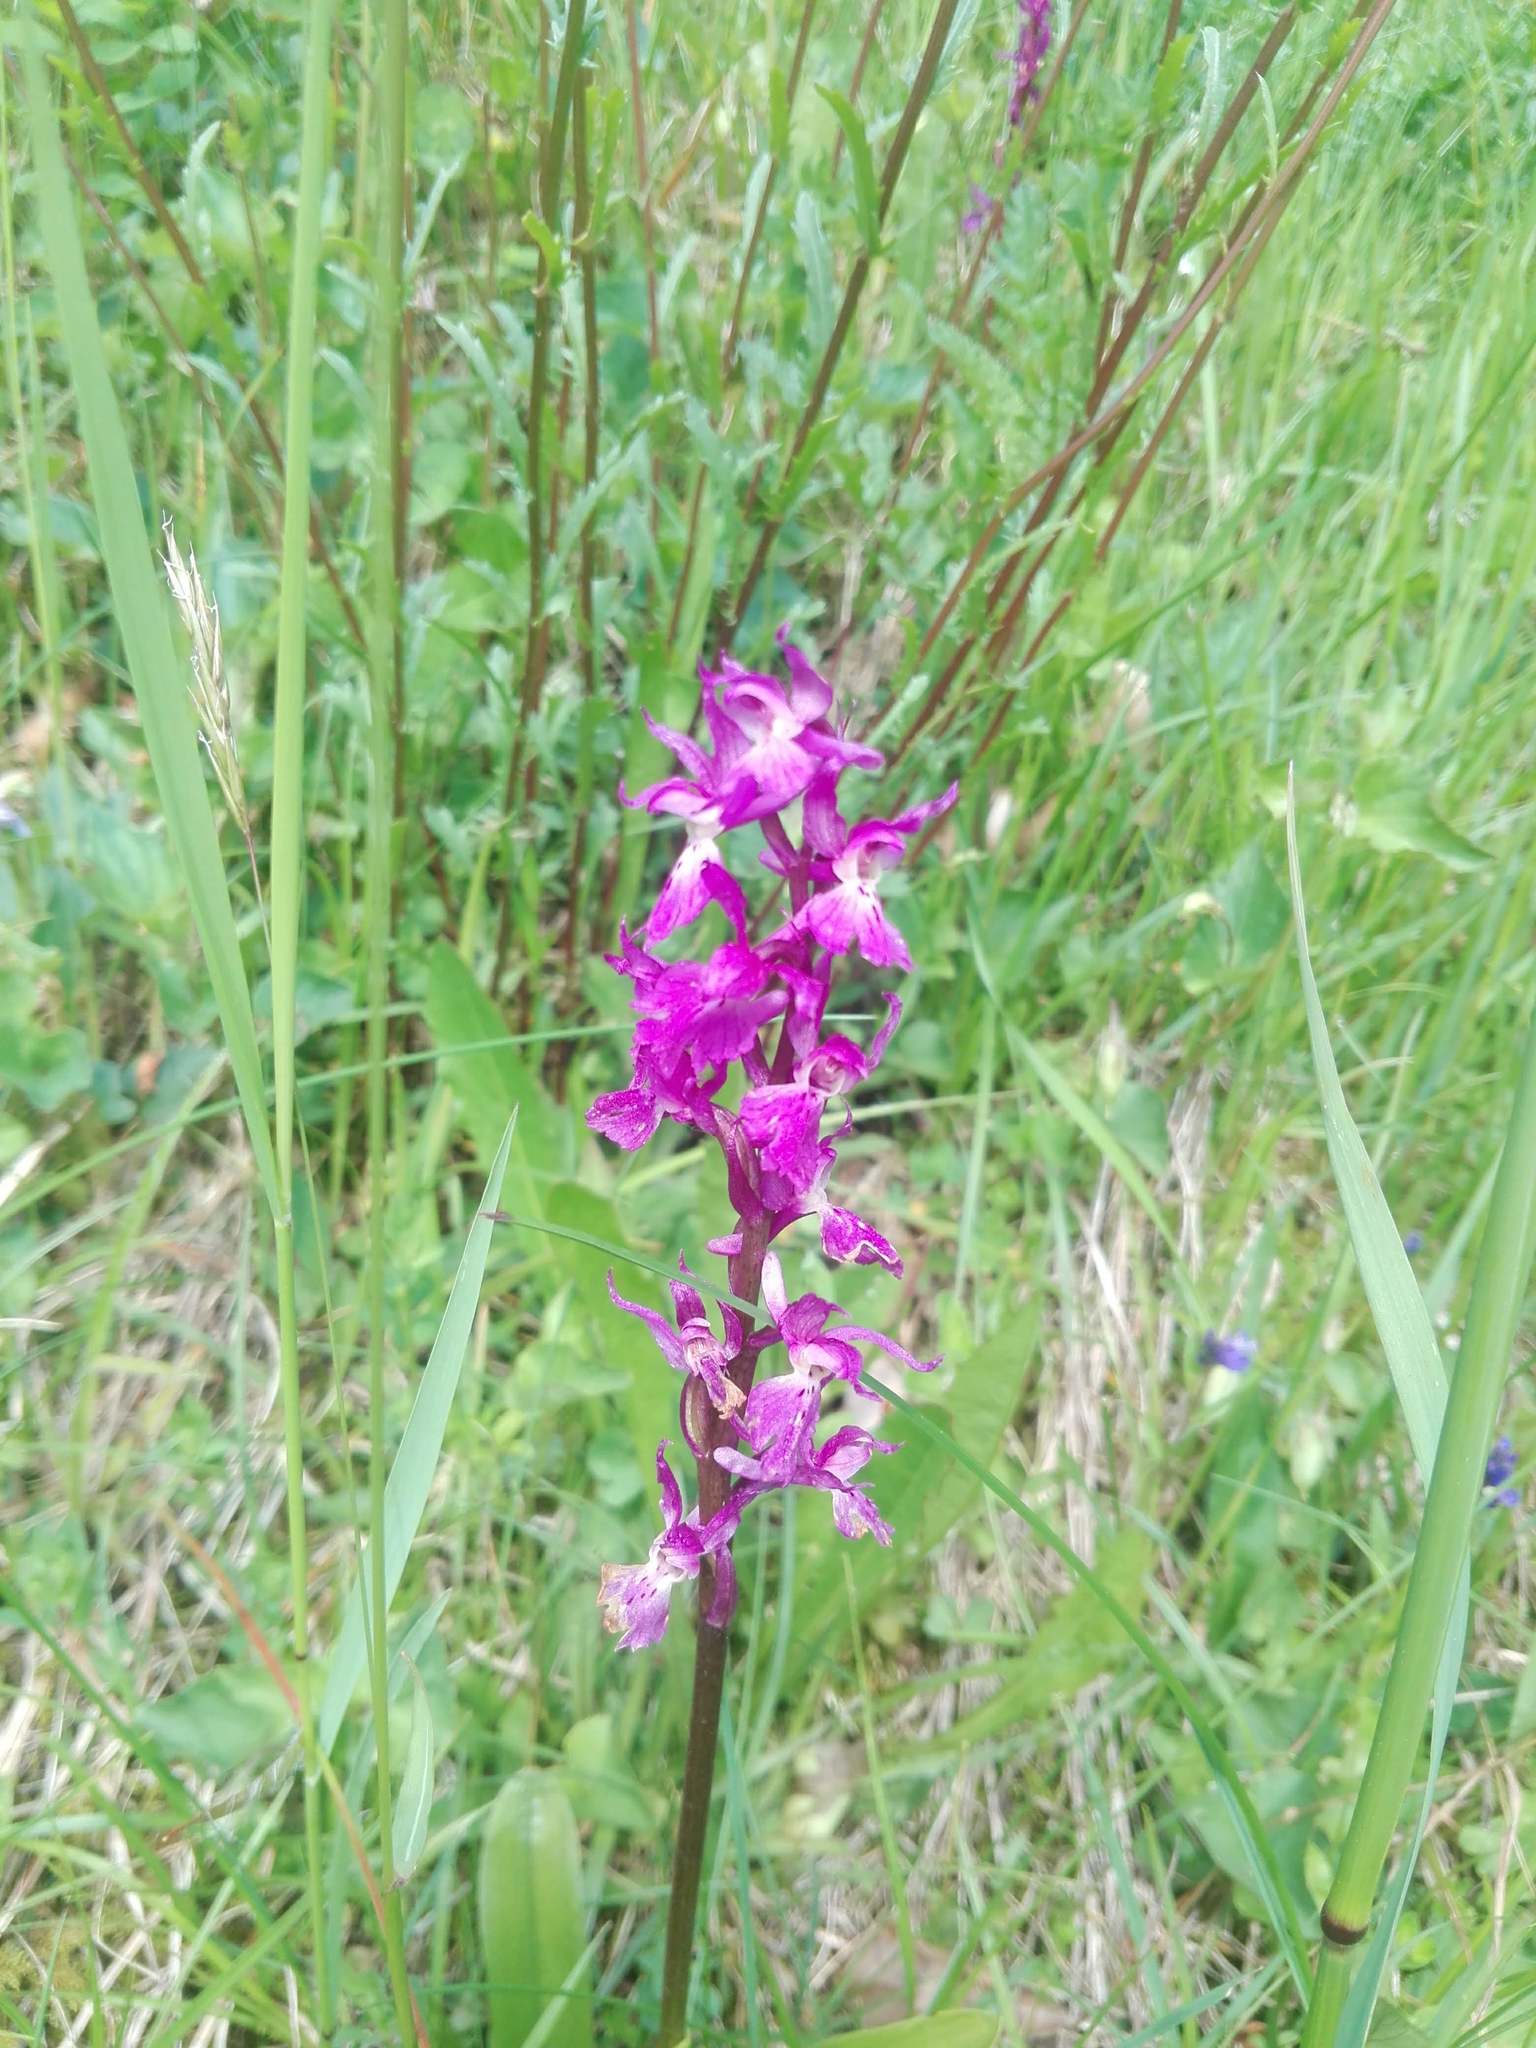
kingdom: Plantae
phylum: Tracheophyta
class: Liliopsida
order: Asparagales
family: Orchidaceae
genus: Orchis
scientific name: Orchis mascula
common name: Early-purple orchid
